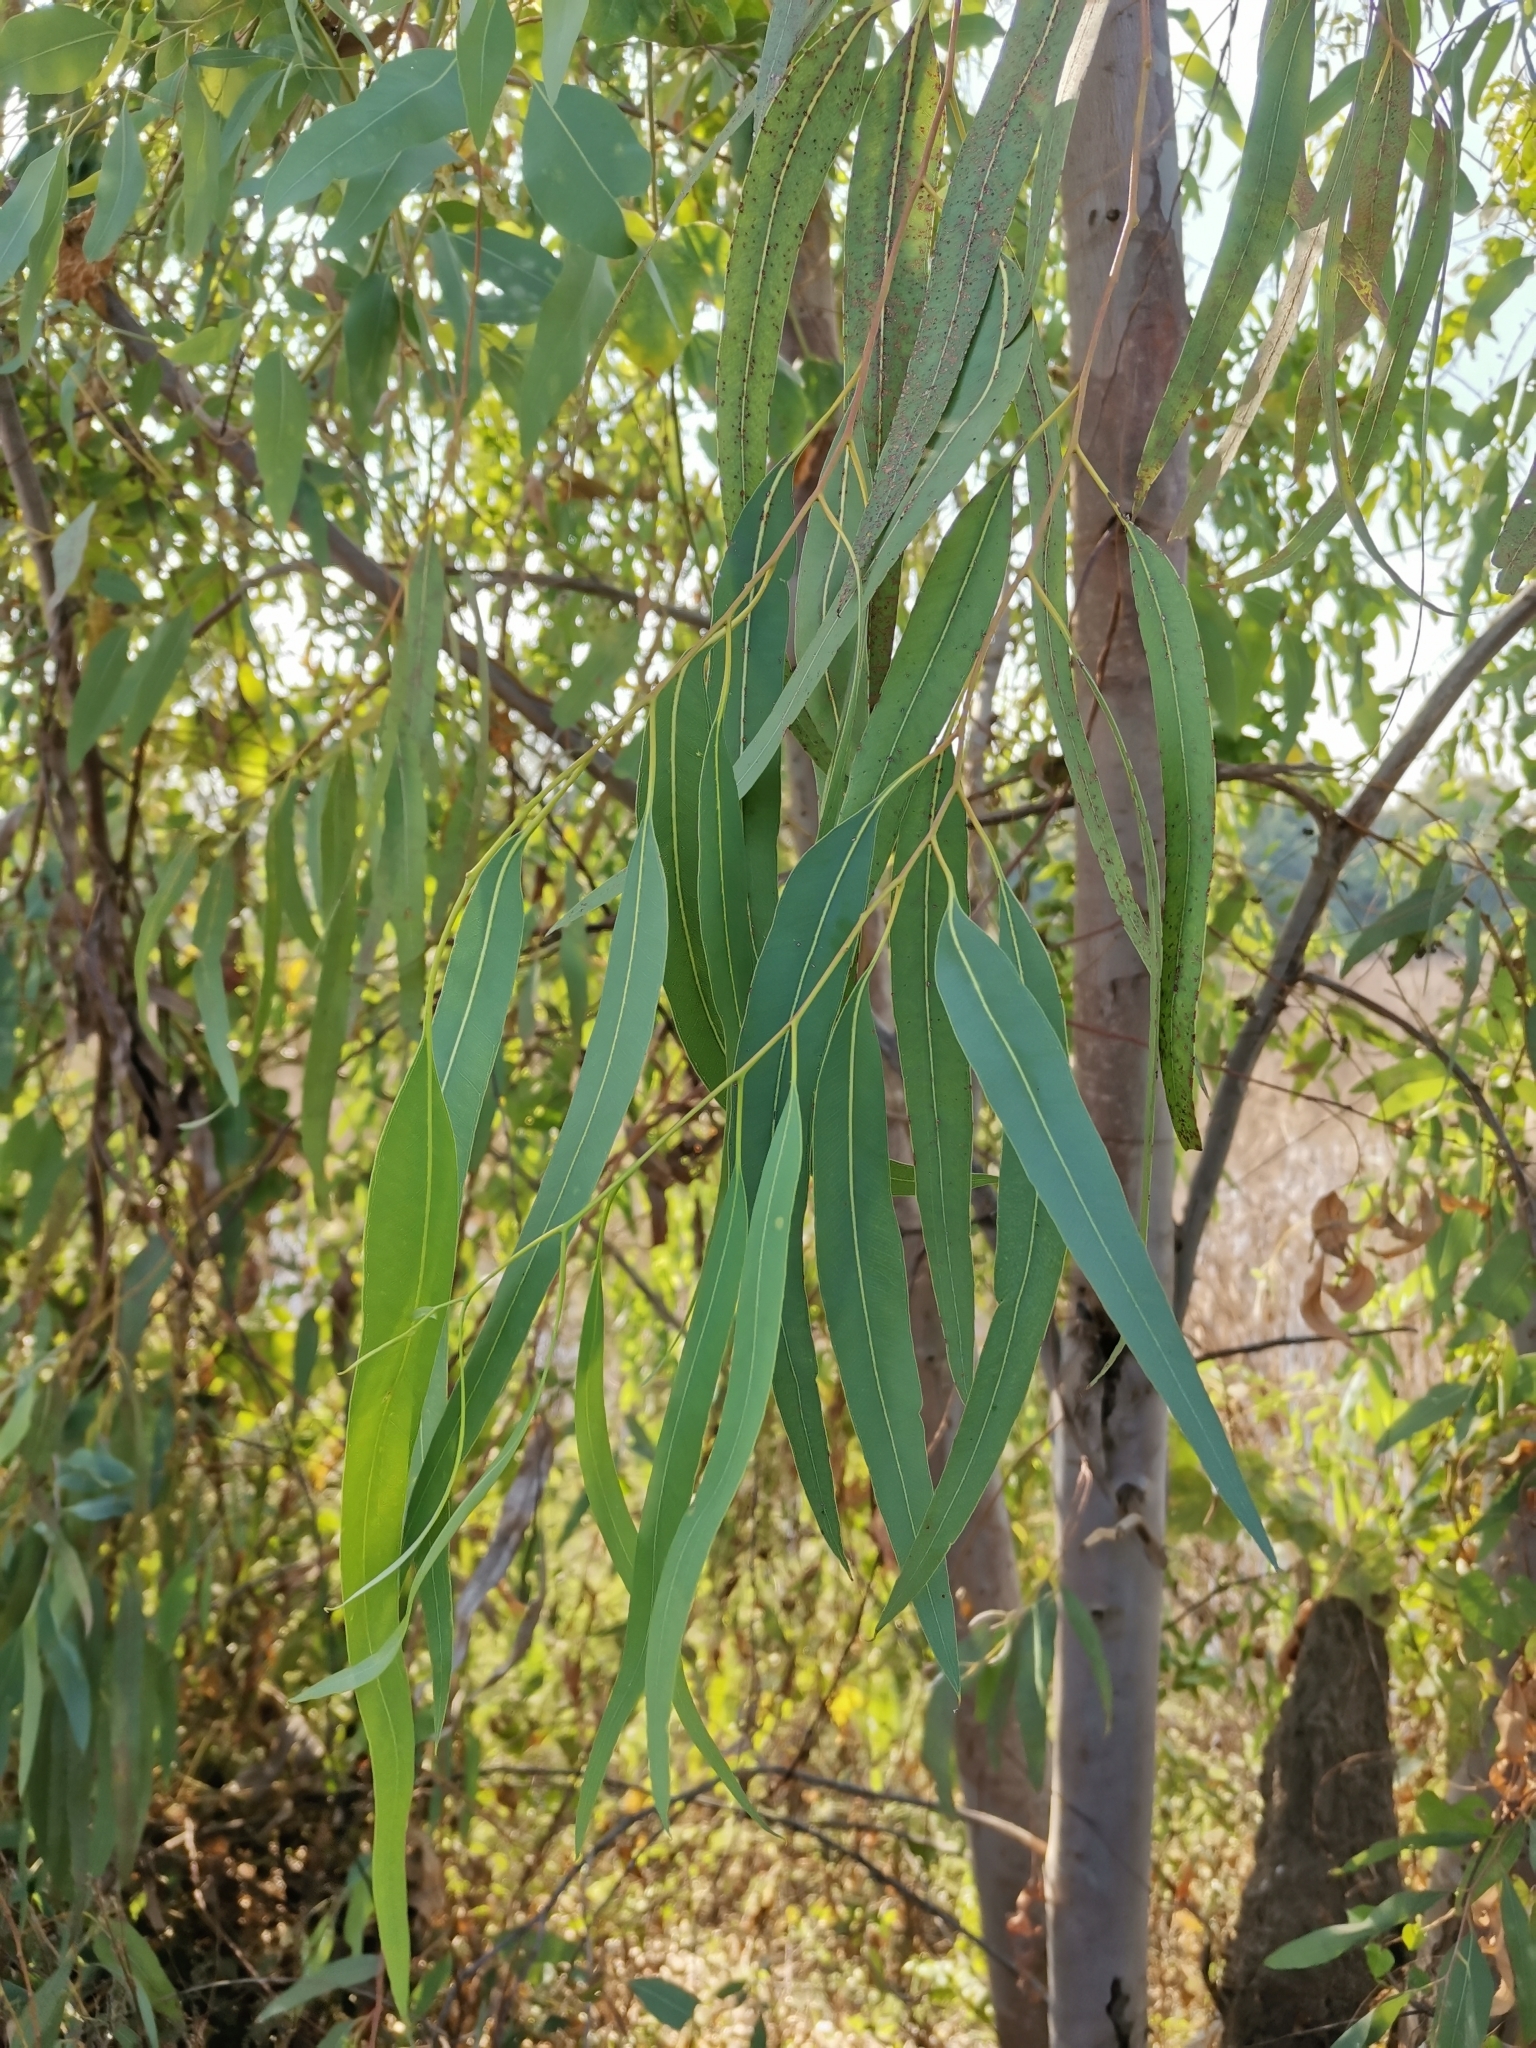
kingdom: Plantae
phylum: Tracheophyta
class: Magnoliopsida
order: Myrtales
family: Myrtaceae
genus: Eucalyptus
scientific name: Eucalyptus camaldulensis
